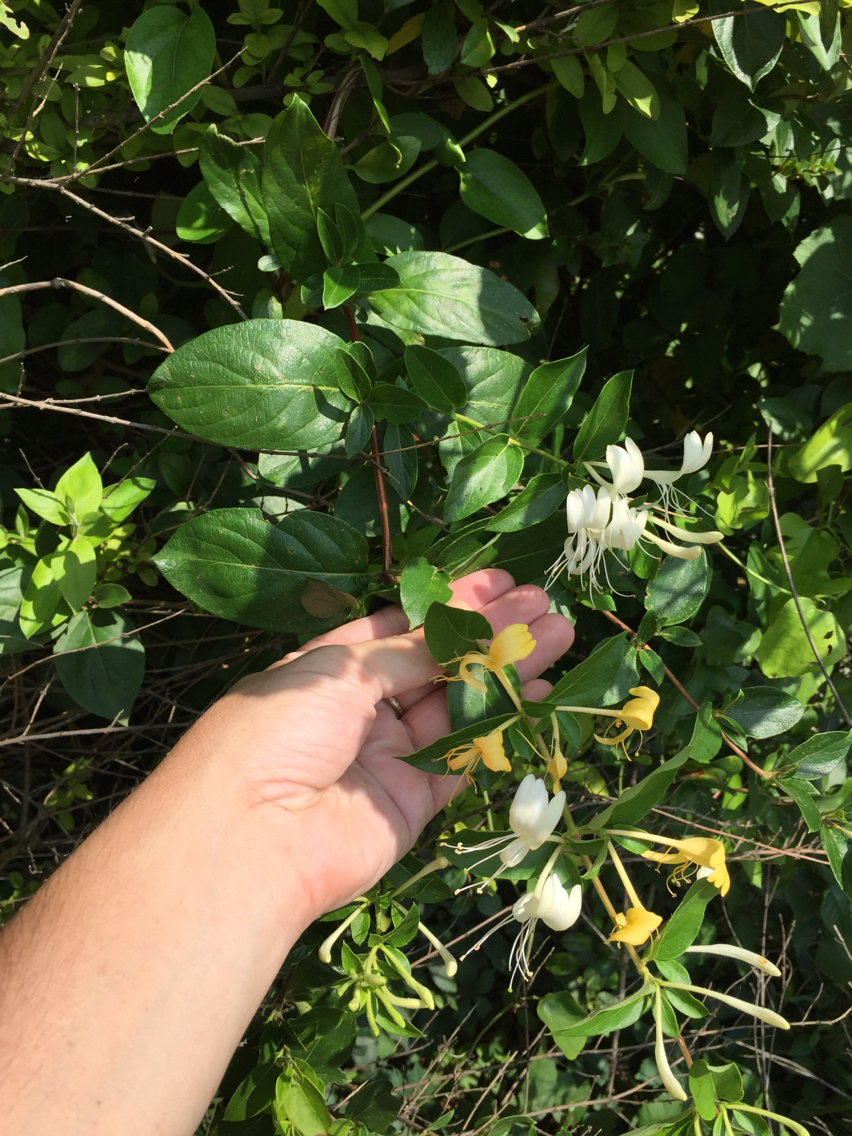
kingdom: Plantae
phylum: Tracheophyta
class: Magnoliopsida
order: Dipsacales
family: Caprifoliaceae
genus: Lonicera
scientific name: Lonicera japonica
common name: Japanese honeysuckle
